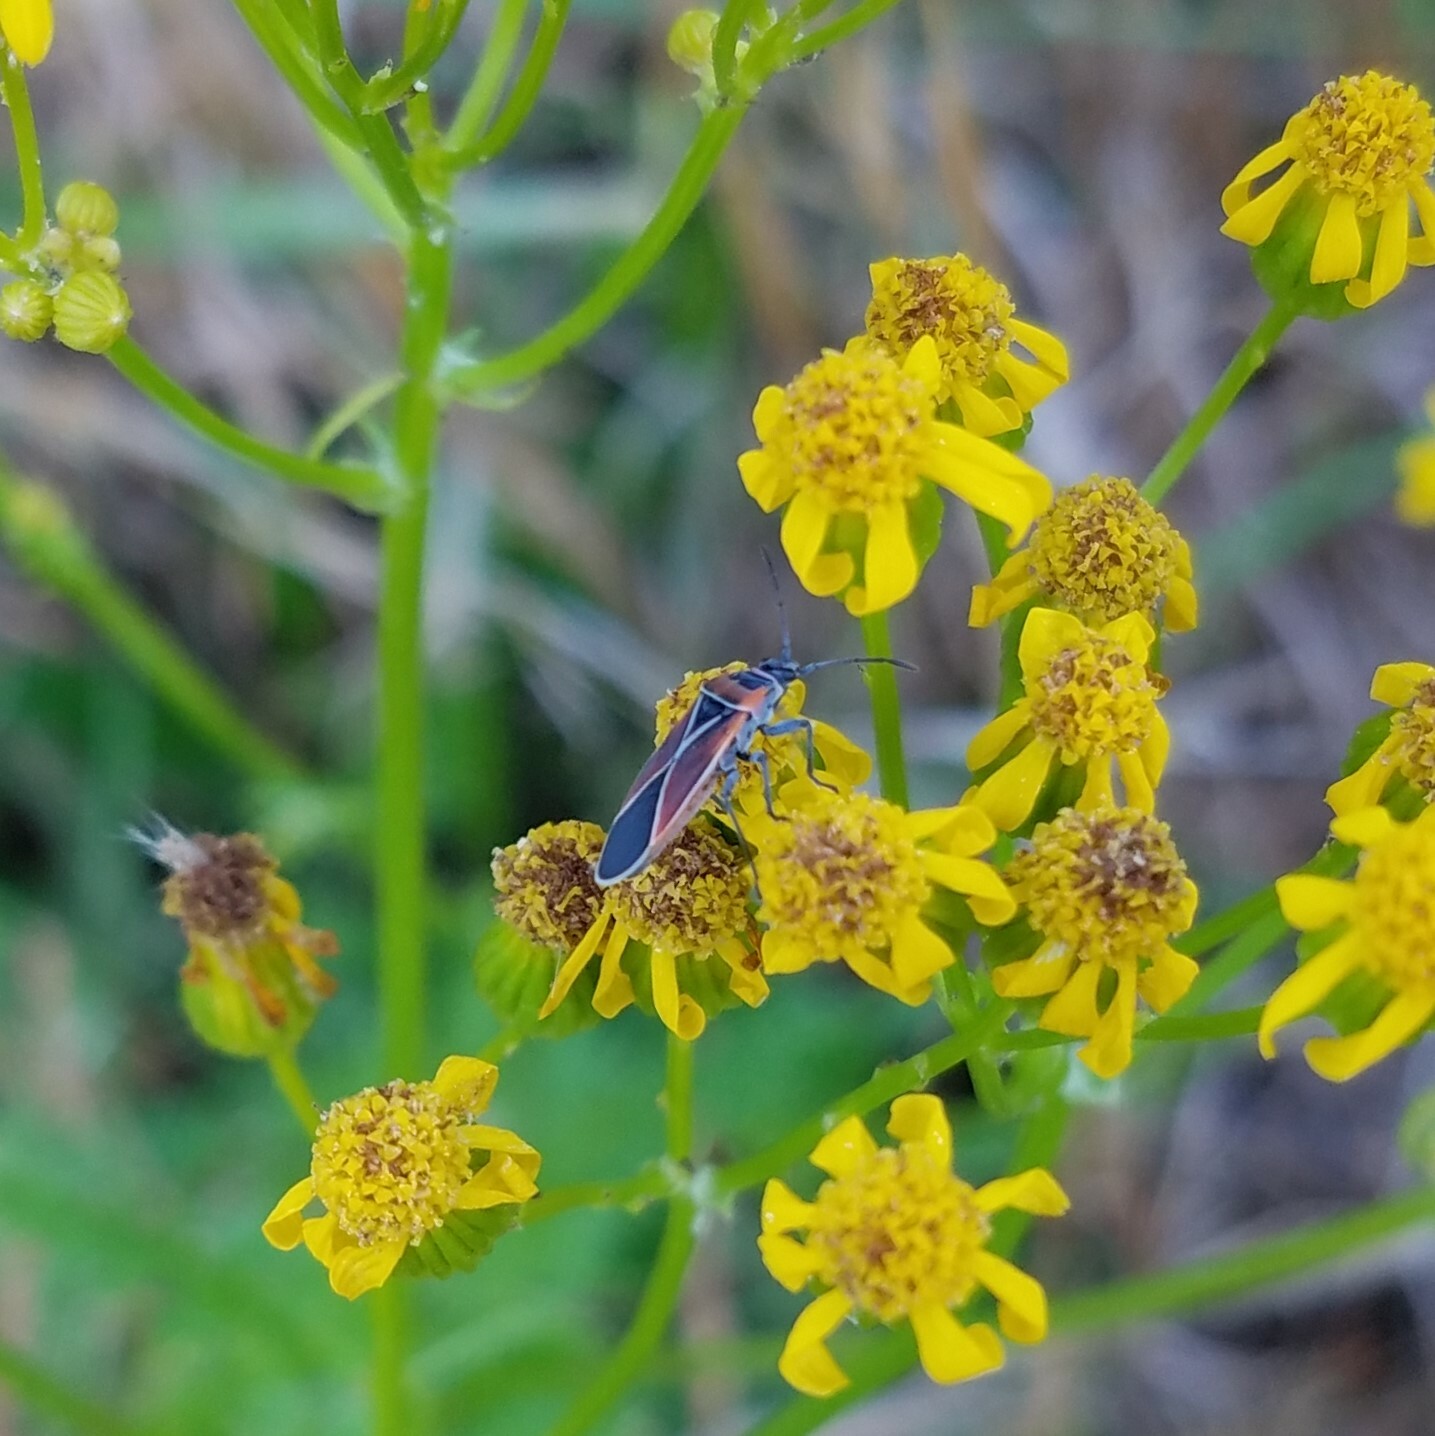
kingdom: Animalia
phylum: Arthropoda
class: Insecta
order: Hemiptera
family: Lygaeidae
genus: Neacoryphus
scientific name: Neacoryphus bicrucis
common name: Lygaeid bug
